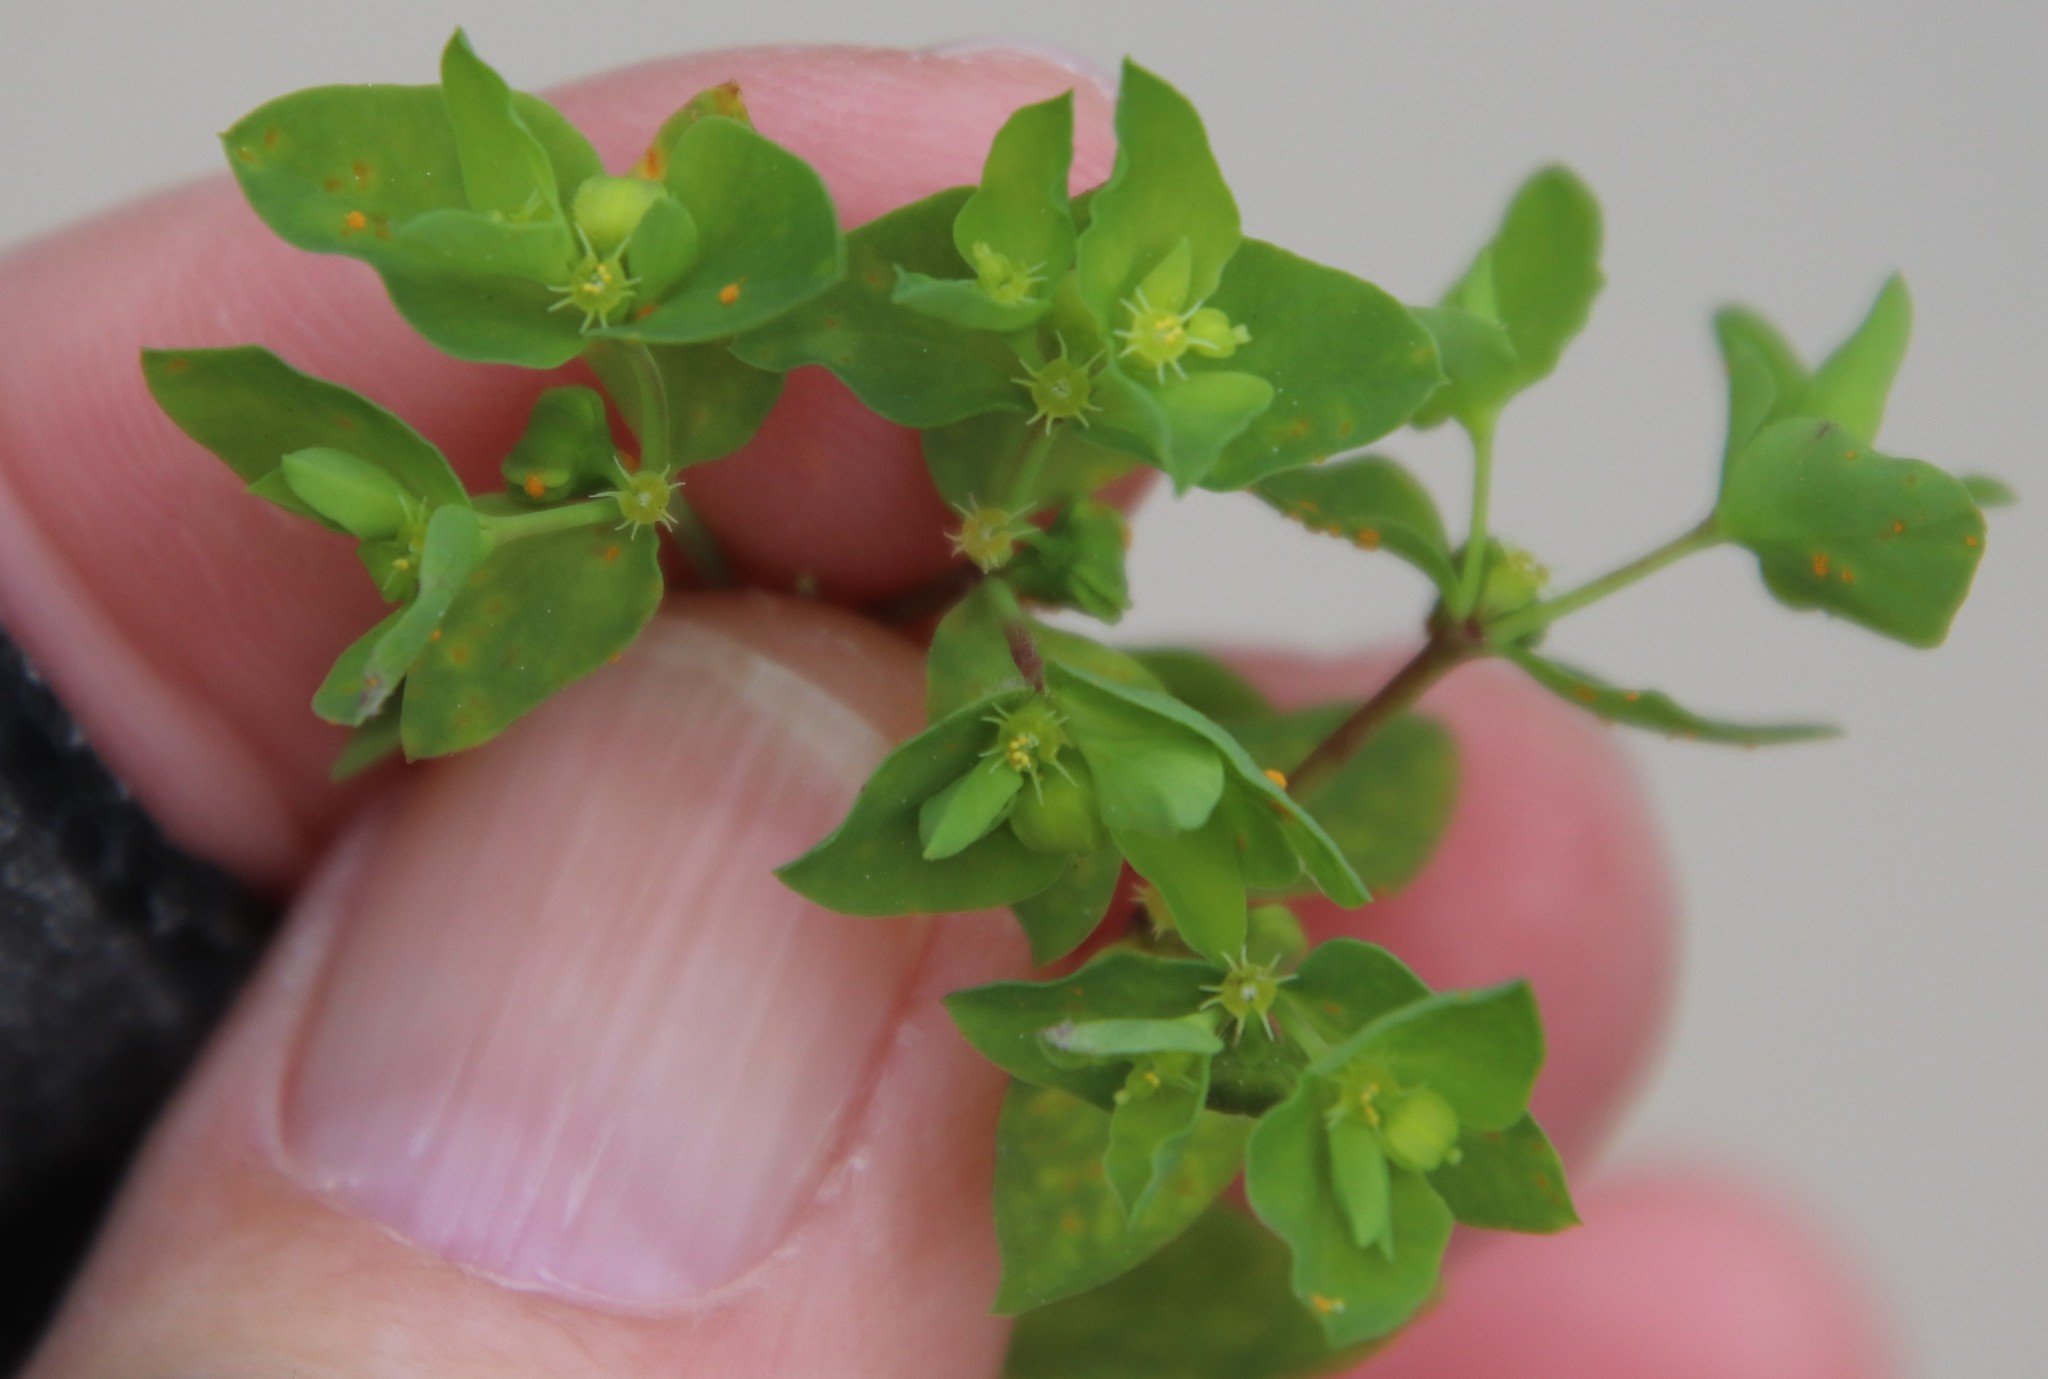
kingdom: Plantae
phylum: Tracheophyta
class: Magnoliopsida
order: Malpighiales
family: Euphorbiaceae
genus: Euphorbia
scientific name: Euphorbia peplus
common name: Petty spurge
